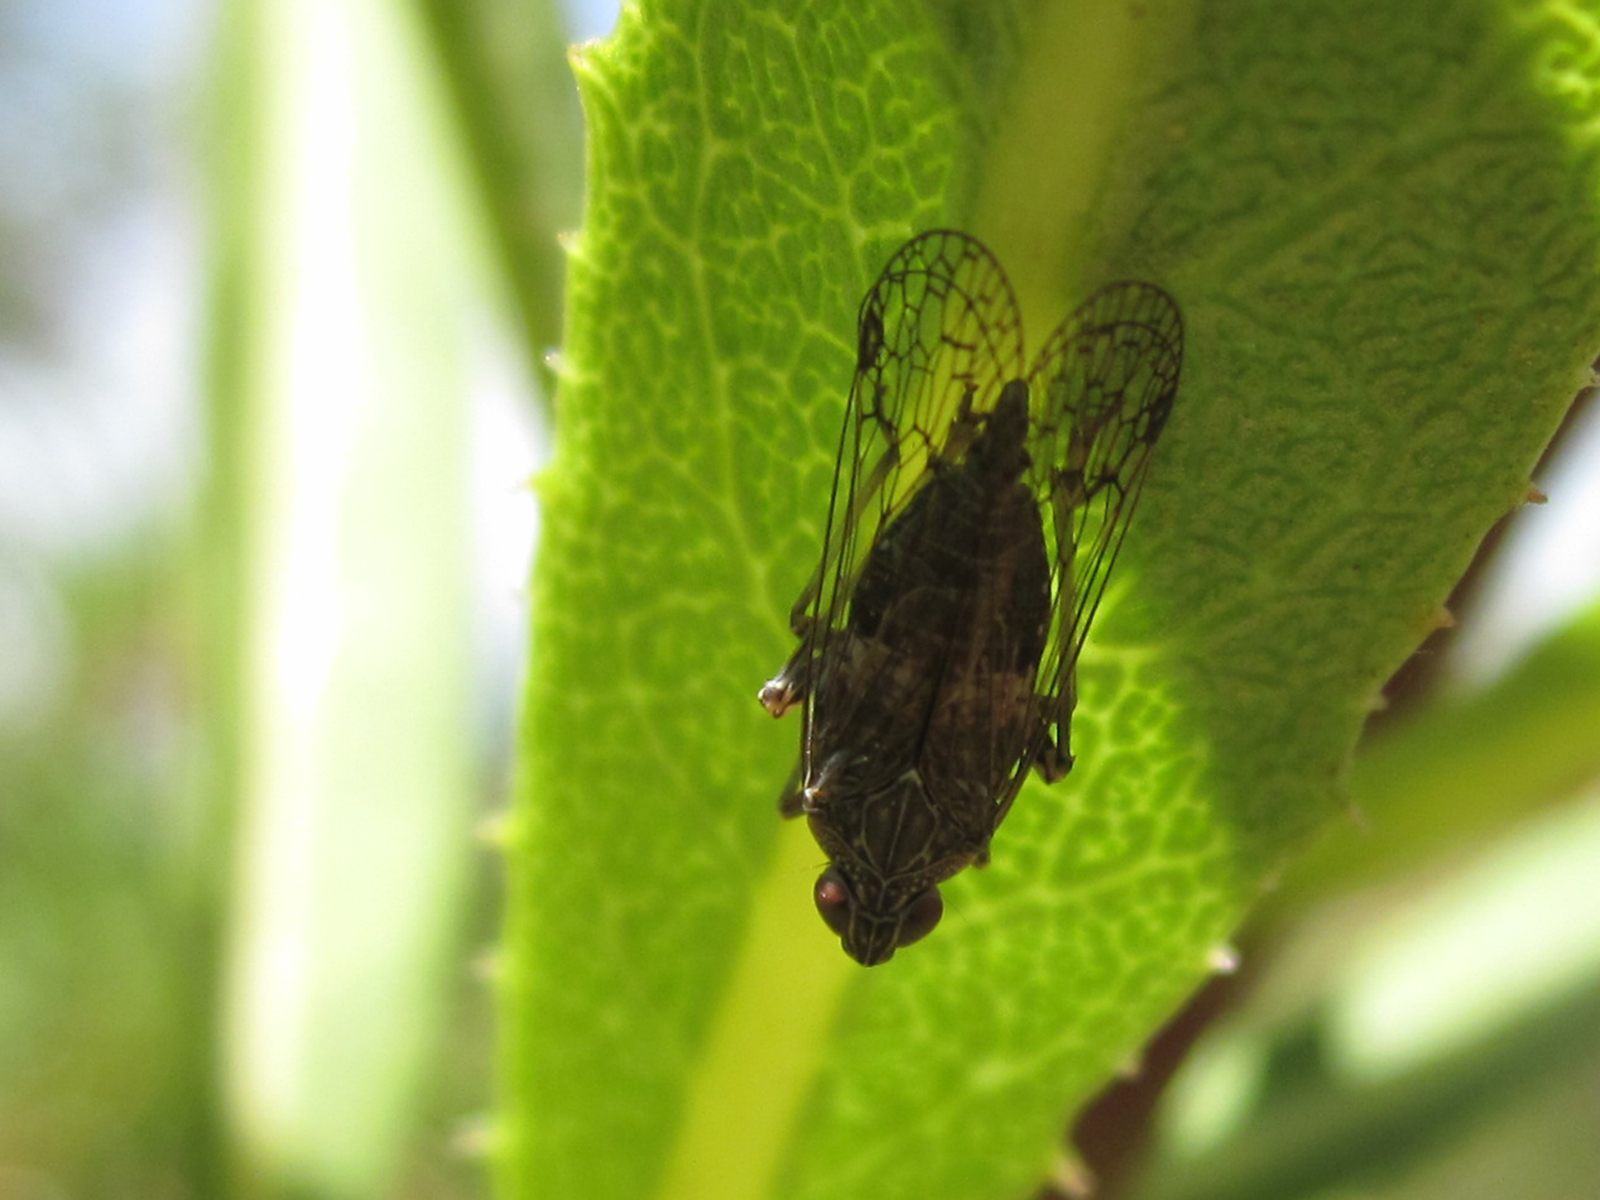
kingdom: Animalia
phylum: Arthropoda
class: Insecta
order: Hemiptera
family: Dictyopharidae
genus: Chondrophana
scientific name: Chondrophana gayi
